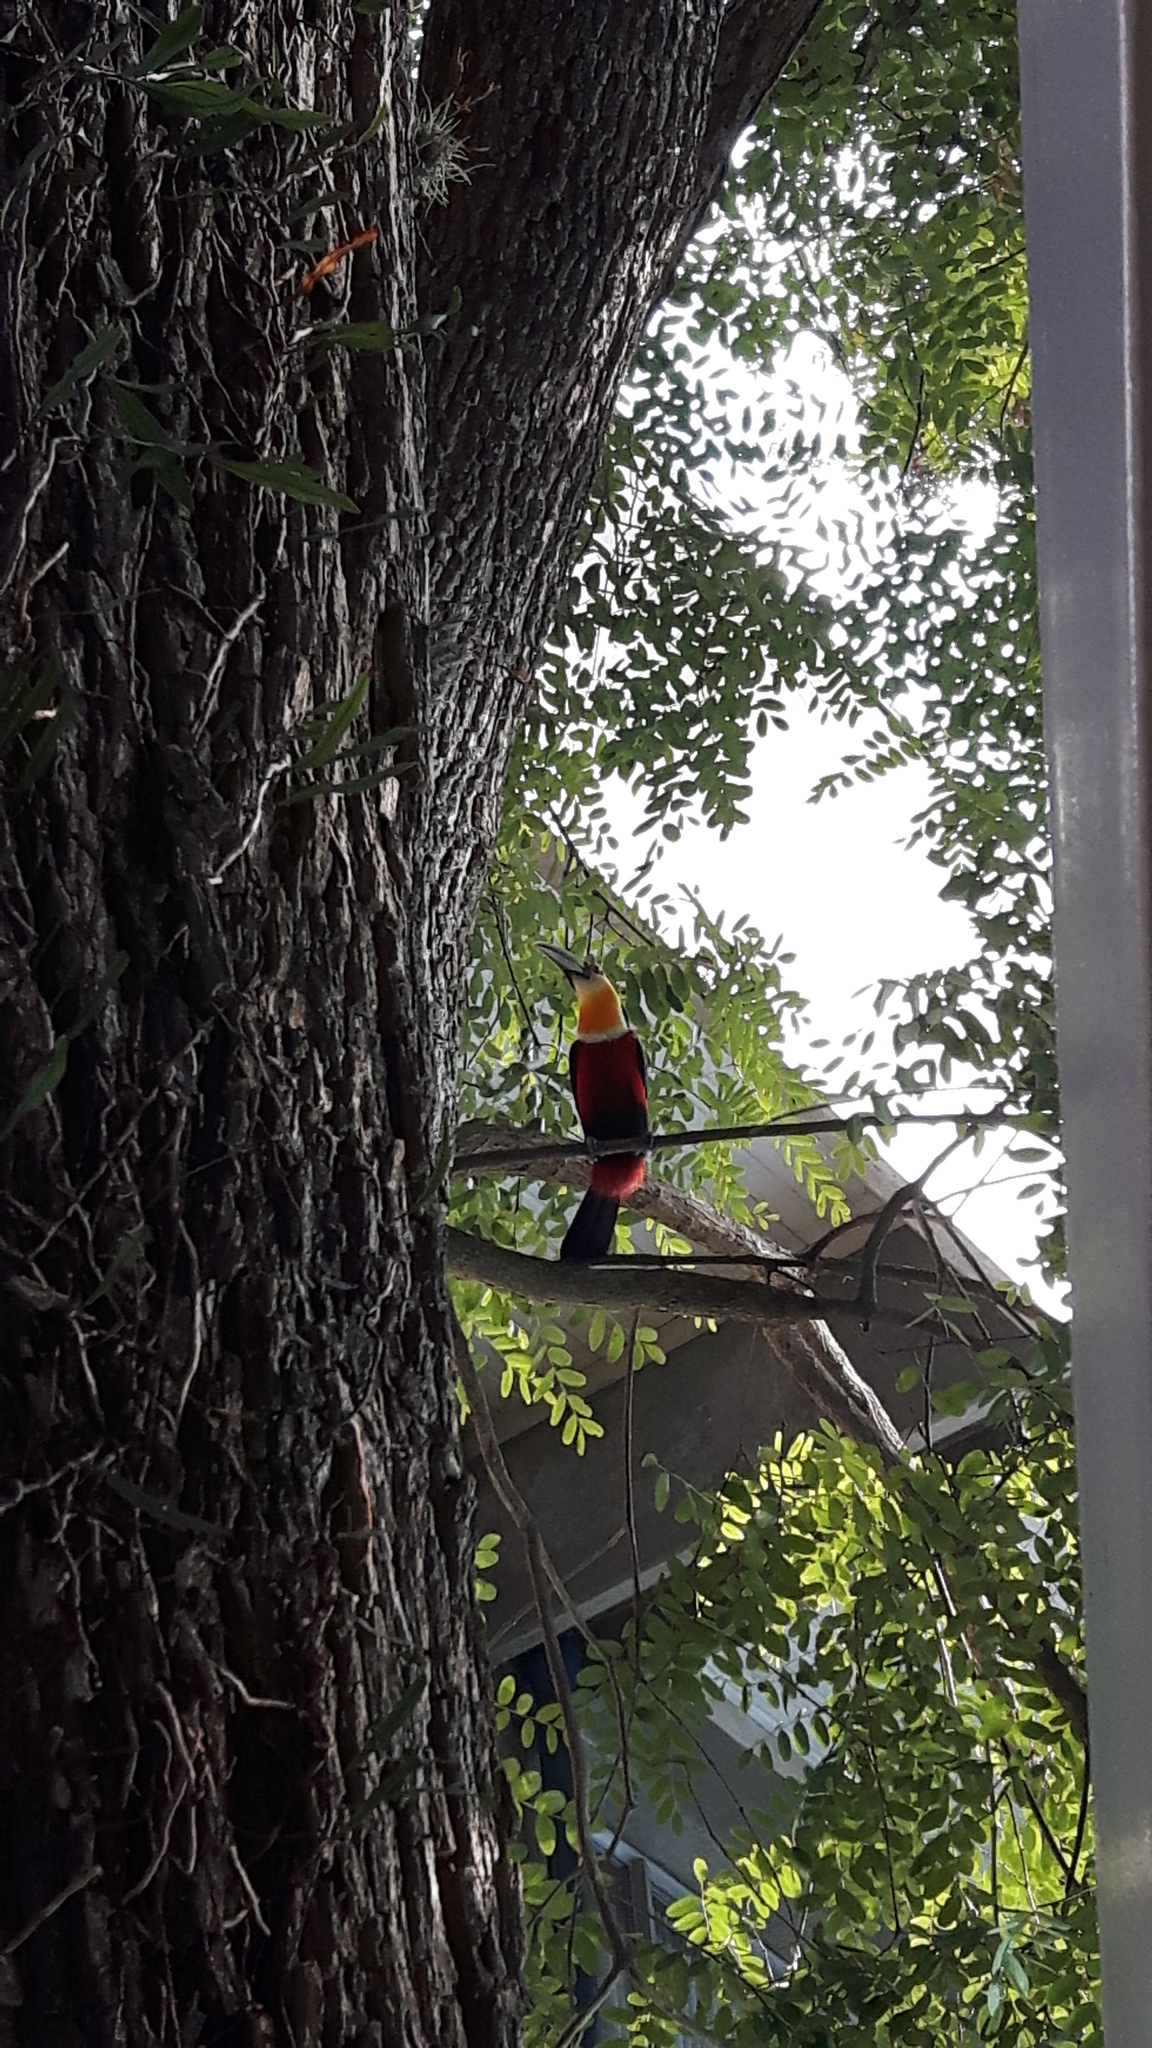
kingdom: Animalia
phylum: Chordata
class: Aves
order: Piciformes
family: Ramphastidae
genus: Ramphastos
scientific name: Ramphastos dicolorus
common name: Green-billed toucan
